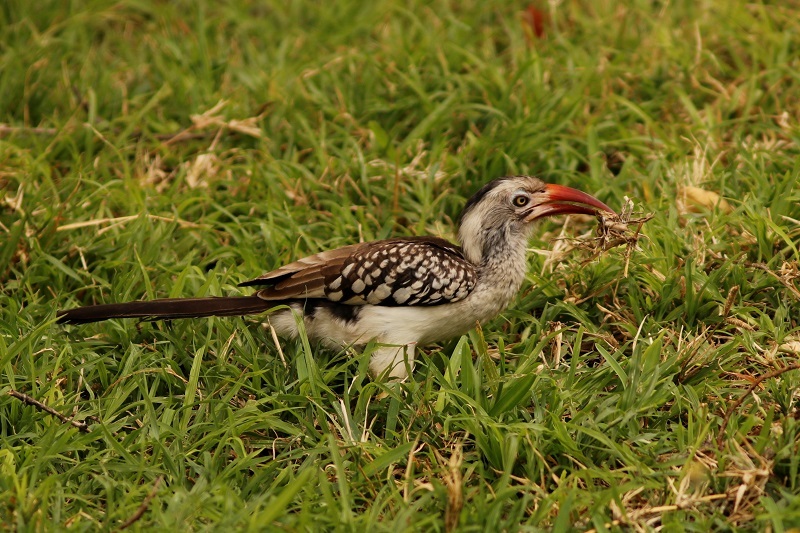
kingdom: Animalia
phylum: Chordata
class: Aves
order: Bucerotiformes
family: Bucerotidae
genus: Tockus
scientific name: Tockus rufirostris
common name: Southern red-billed hornbill
